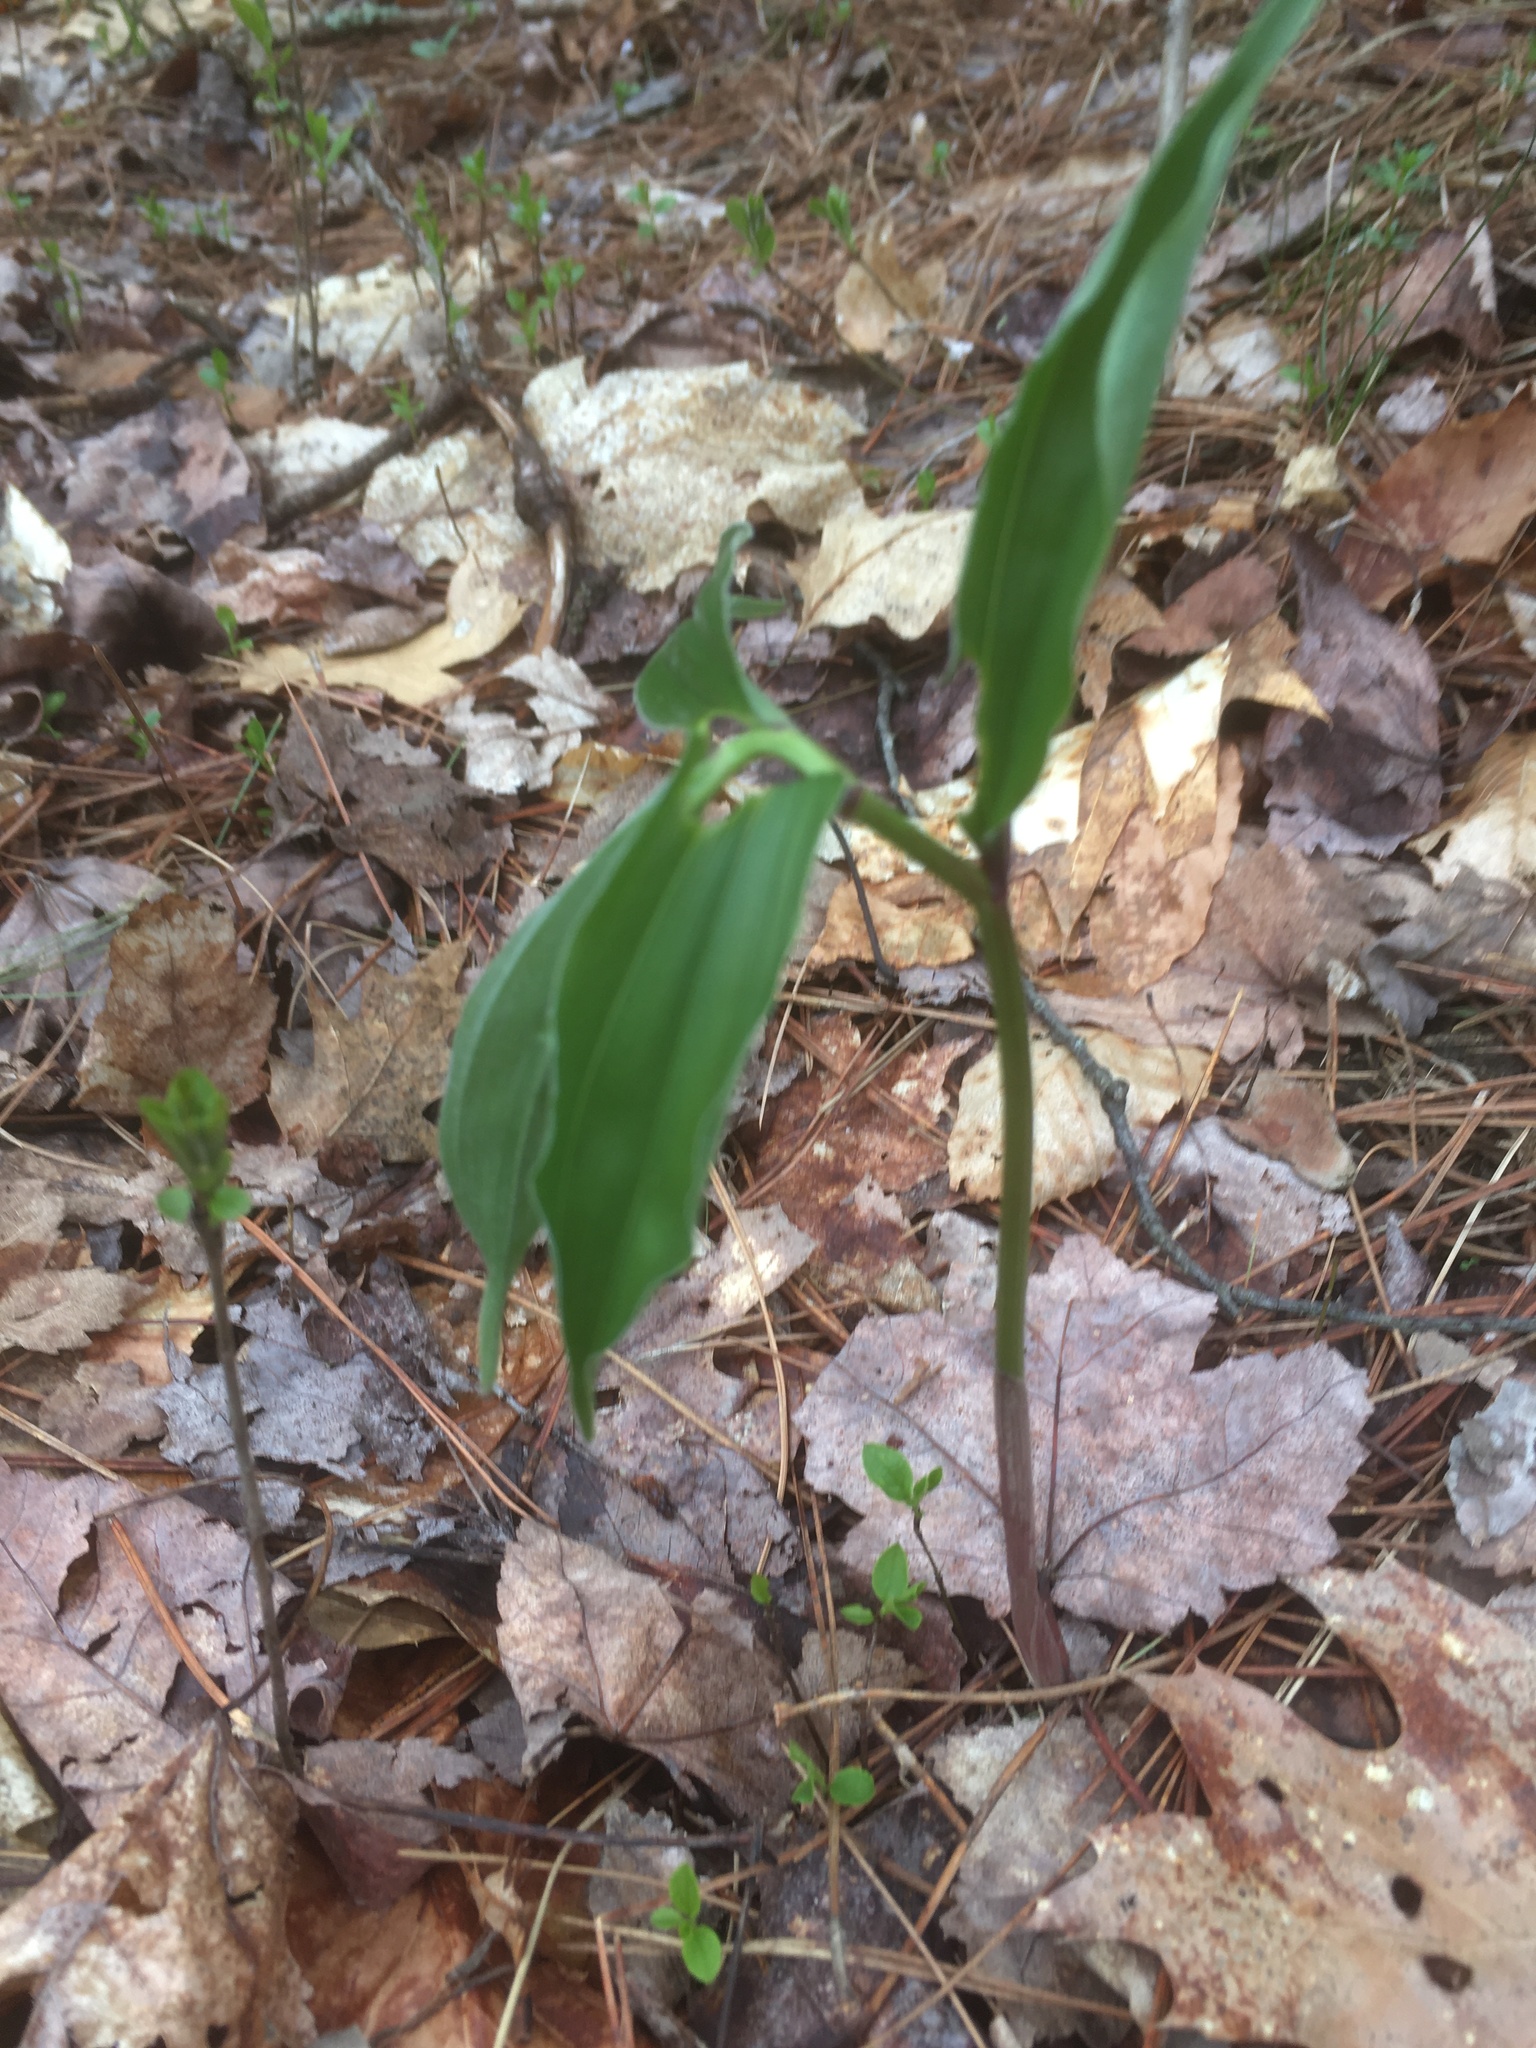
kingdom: Plantae
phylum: Tracheophyta
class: Liliopsida
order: Asparagales
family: Asparagaceae
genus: Maianthemum
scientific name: Maianthemum racemosum
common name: False spikenard
